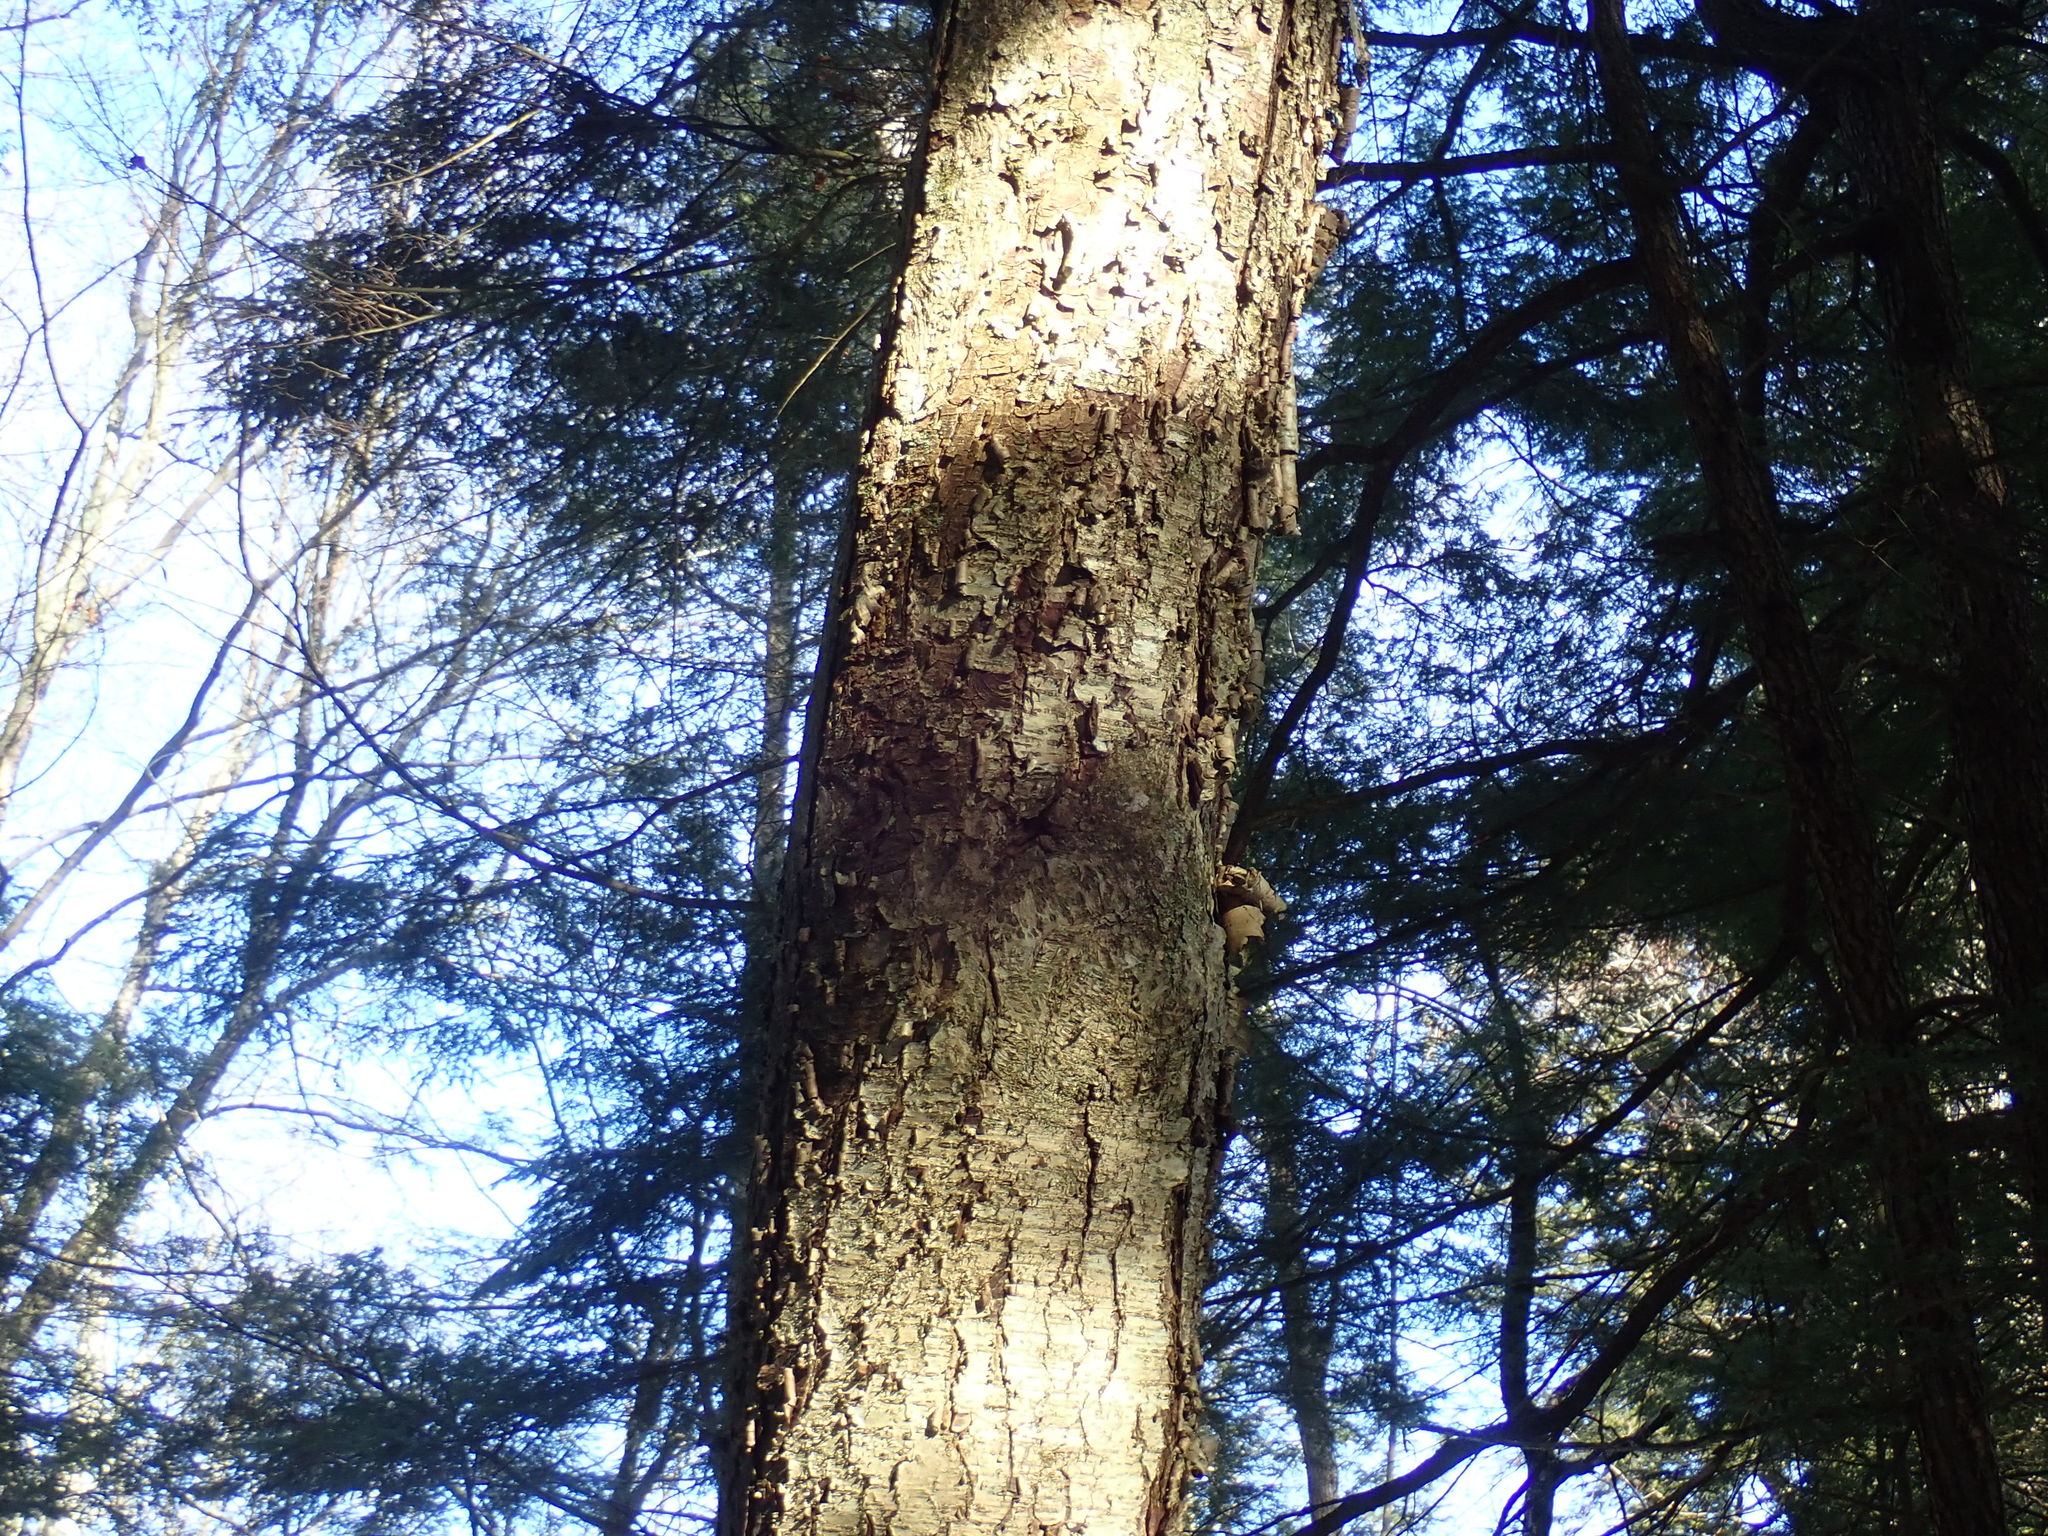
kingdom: Plantae
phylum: Tracheophyta
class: Magnoliopsida
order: Fagales
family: Betulaceae
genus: Betula
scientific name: Betula alleghaniensis
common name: Yellow birch
